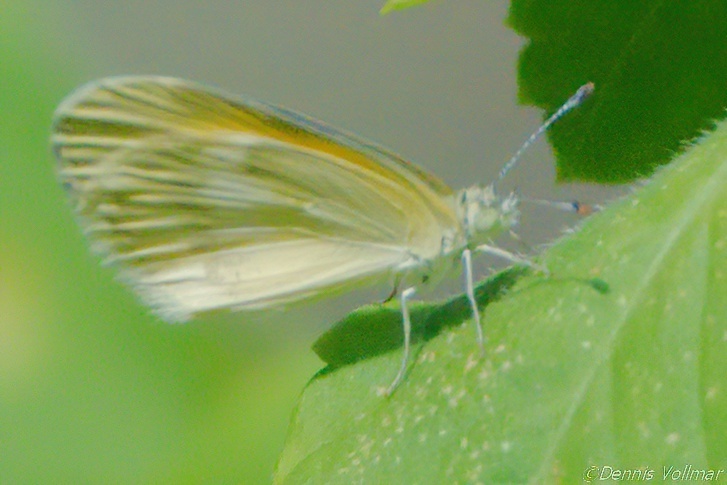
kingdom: Animalia
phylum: Arthropoda
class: Insecta
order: Lepidoptera
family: Pieridae
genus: Nathalis
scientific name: Nathalis iole
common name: Dainty sulphur
